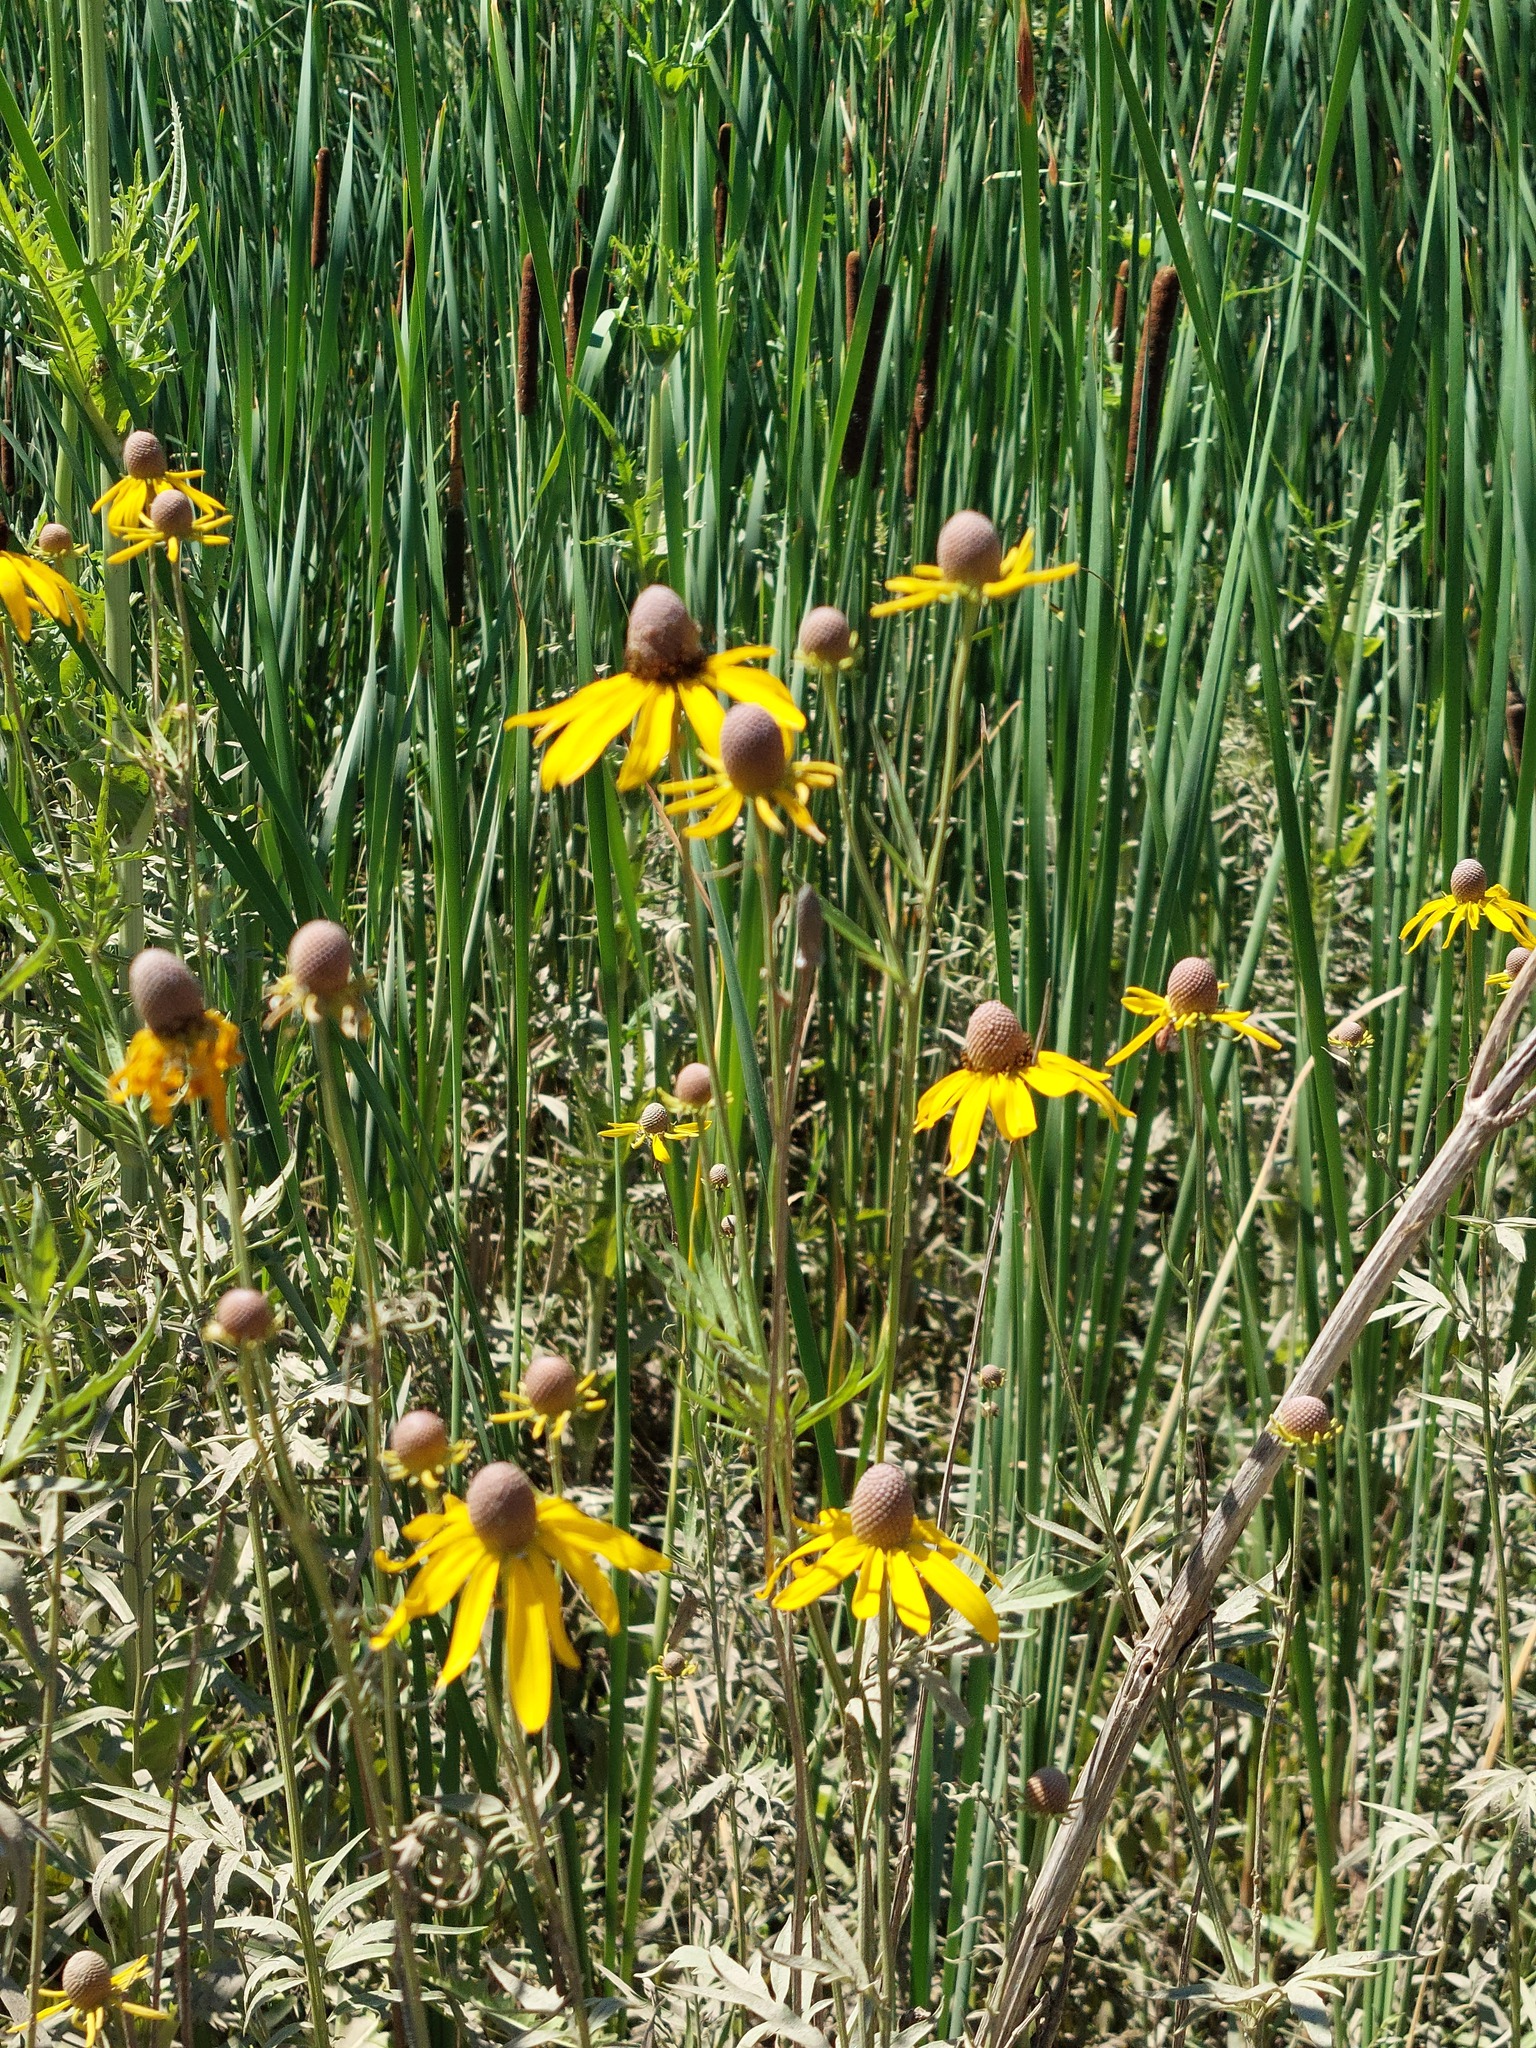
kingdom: Plantae
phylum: Tracheophyta
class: Magnoliopsida
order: Asterales
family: Asteraceae
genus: Ratibida
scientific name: Ratibida pinnata
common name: Drooping prairie-coneflower
